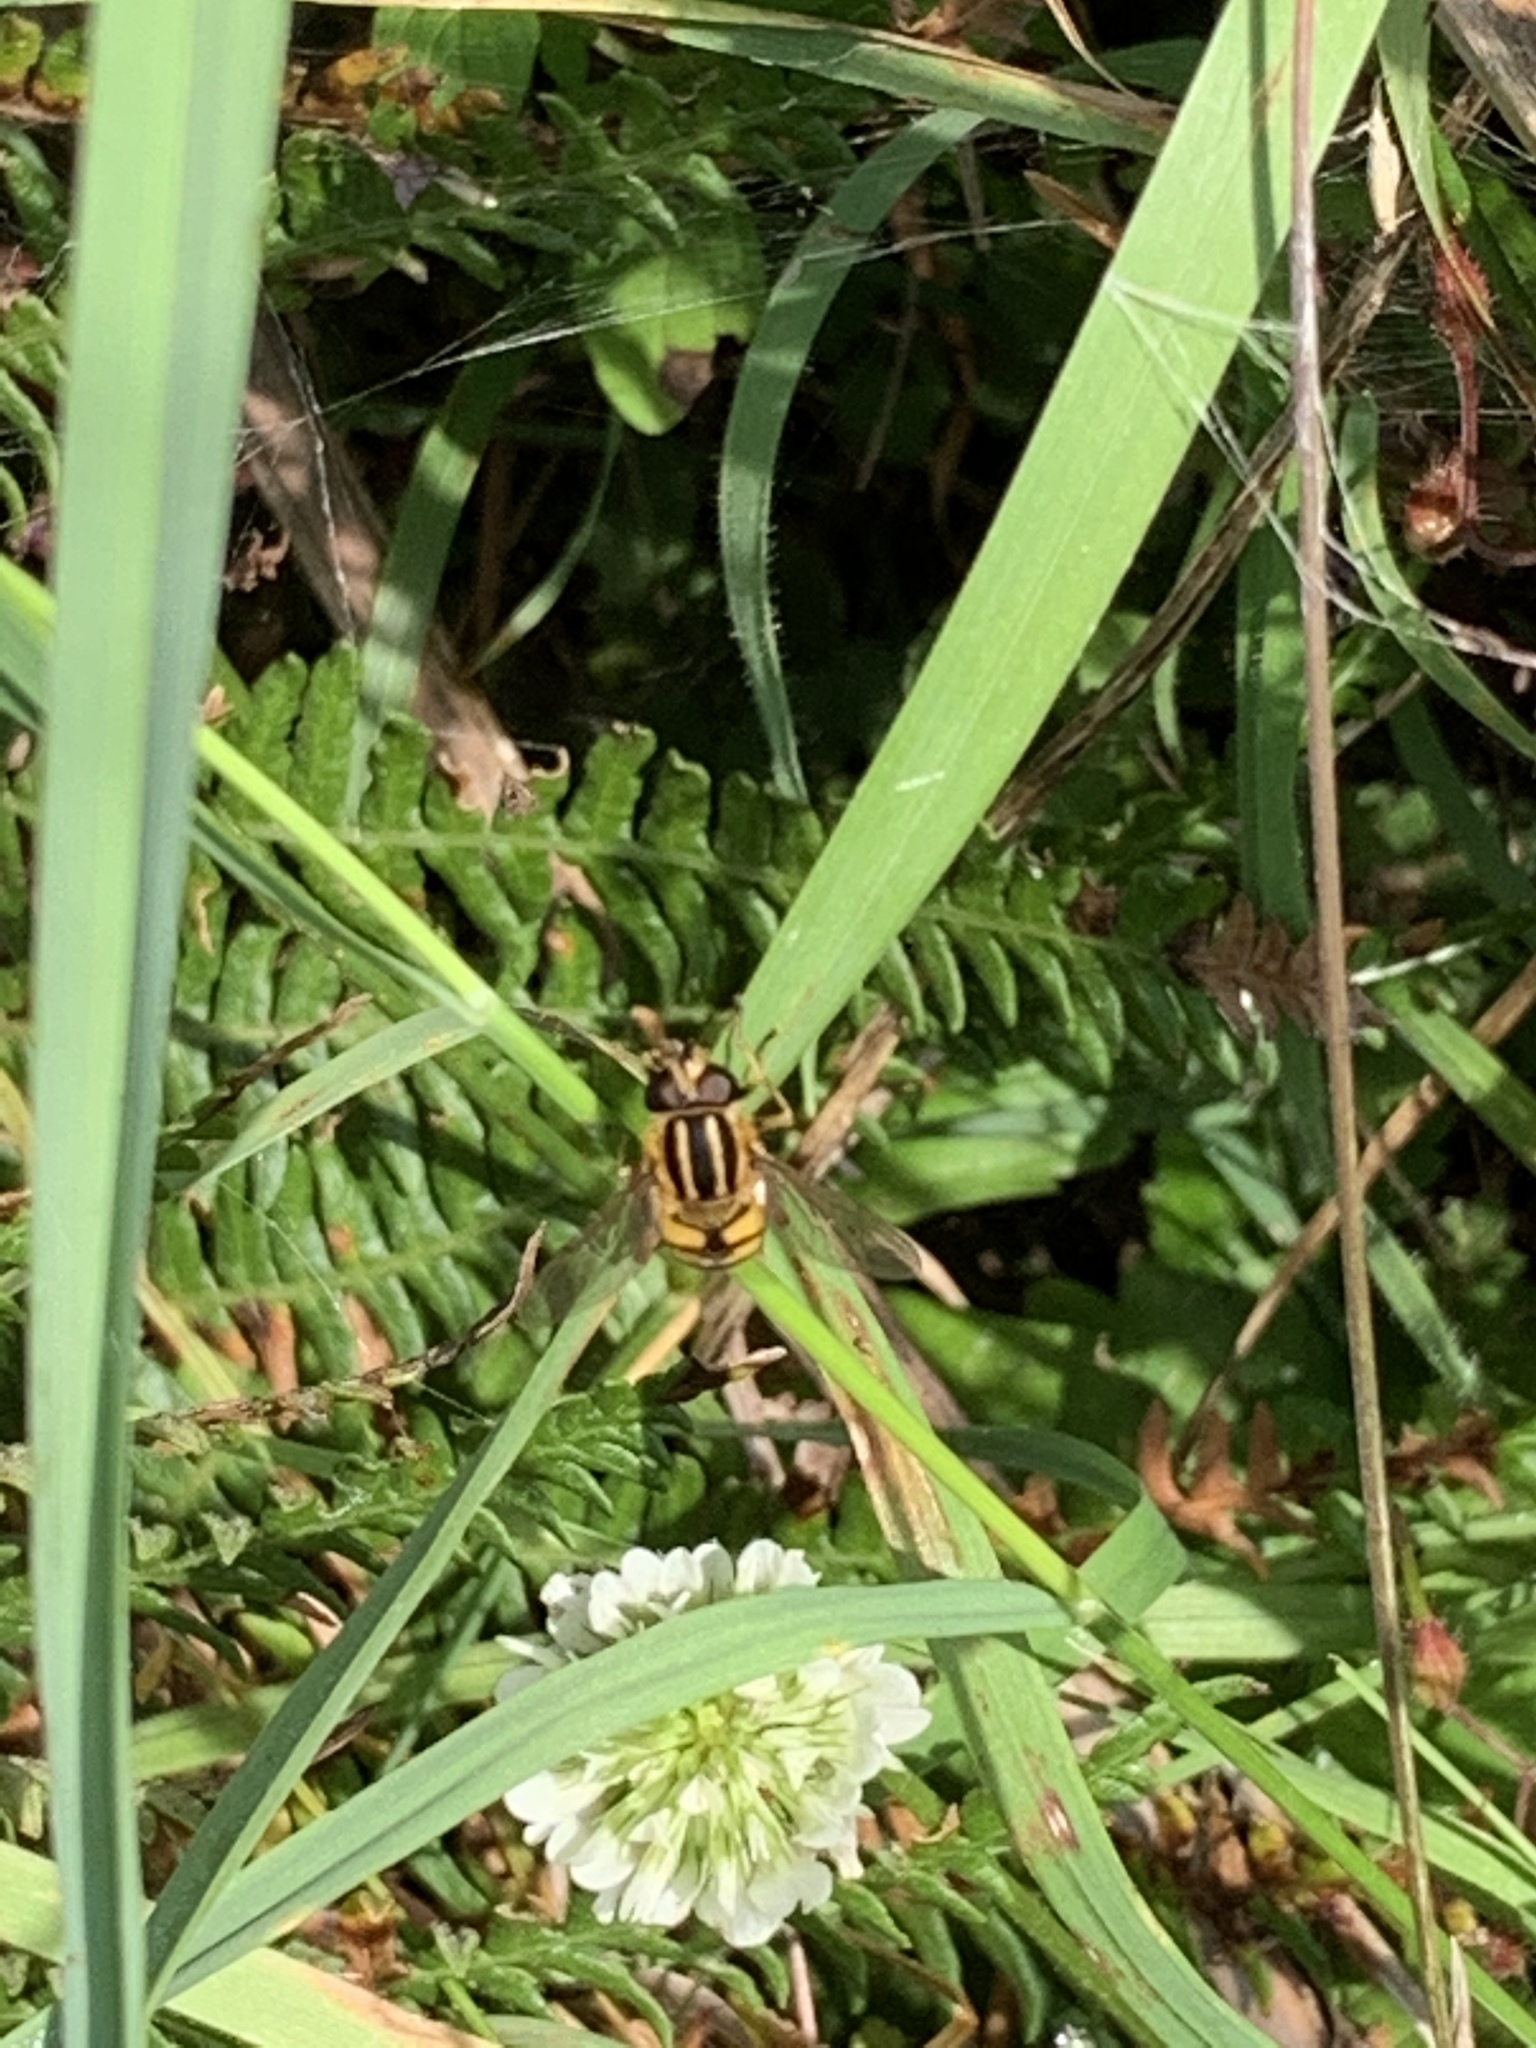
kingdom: Animalia
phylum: Arthropoda
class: Insecta
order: Diptera
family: Syrphidae
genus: Helophilus
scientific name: Helophilus pendulus
